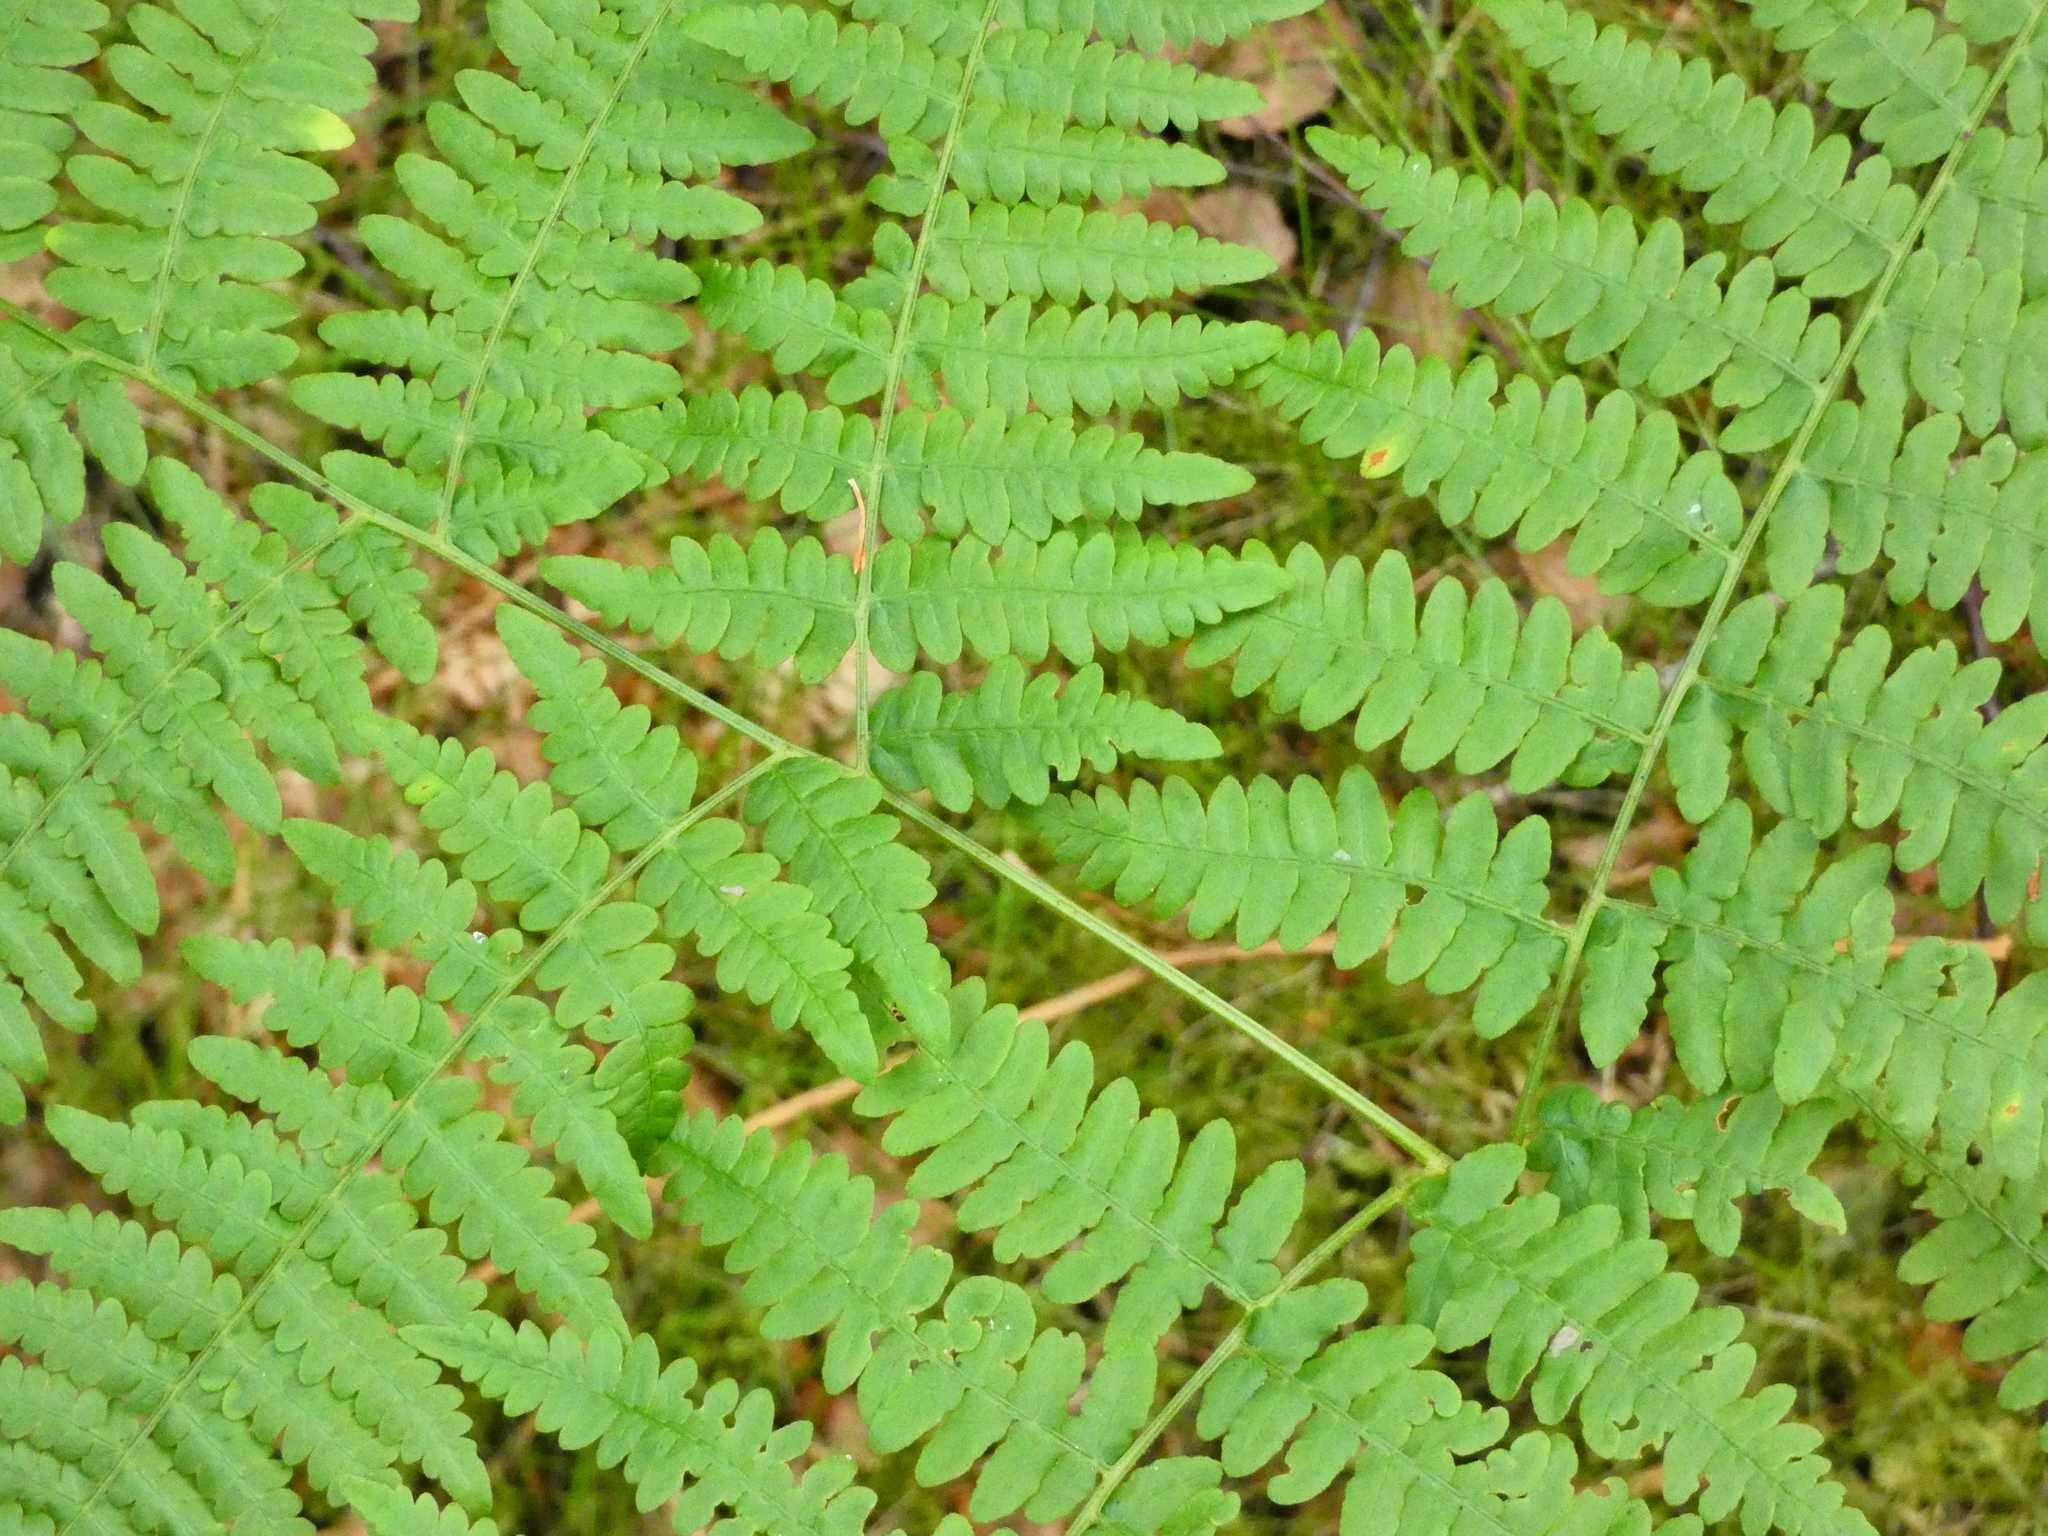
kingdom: Plantae
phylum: Tracheophyta
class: Polypodiopsida
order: Polypodiales
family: Dennstaedtiaceae
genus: Pteridium
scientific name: Pteridium aquilinum
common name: Bracken
